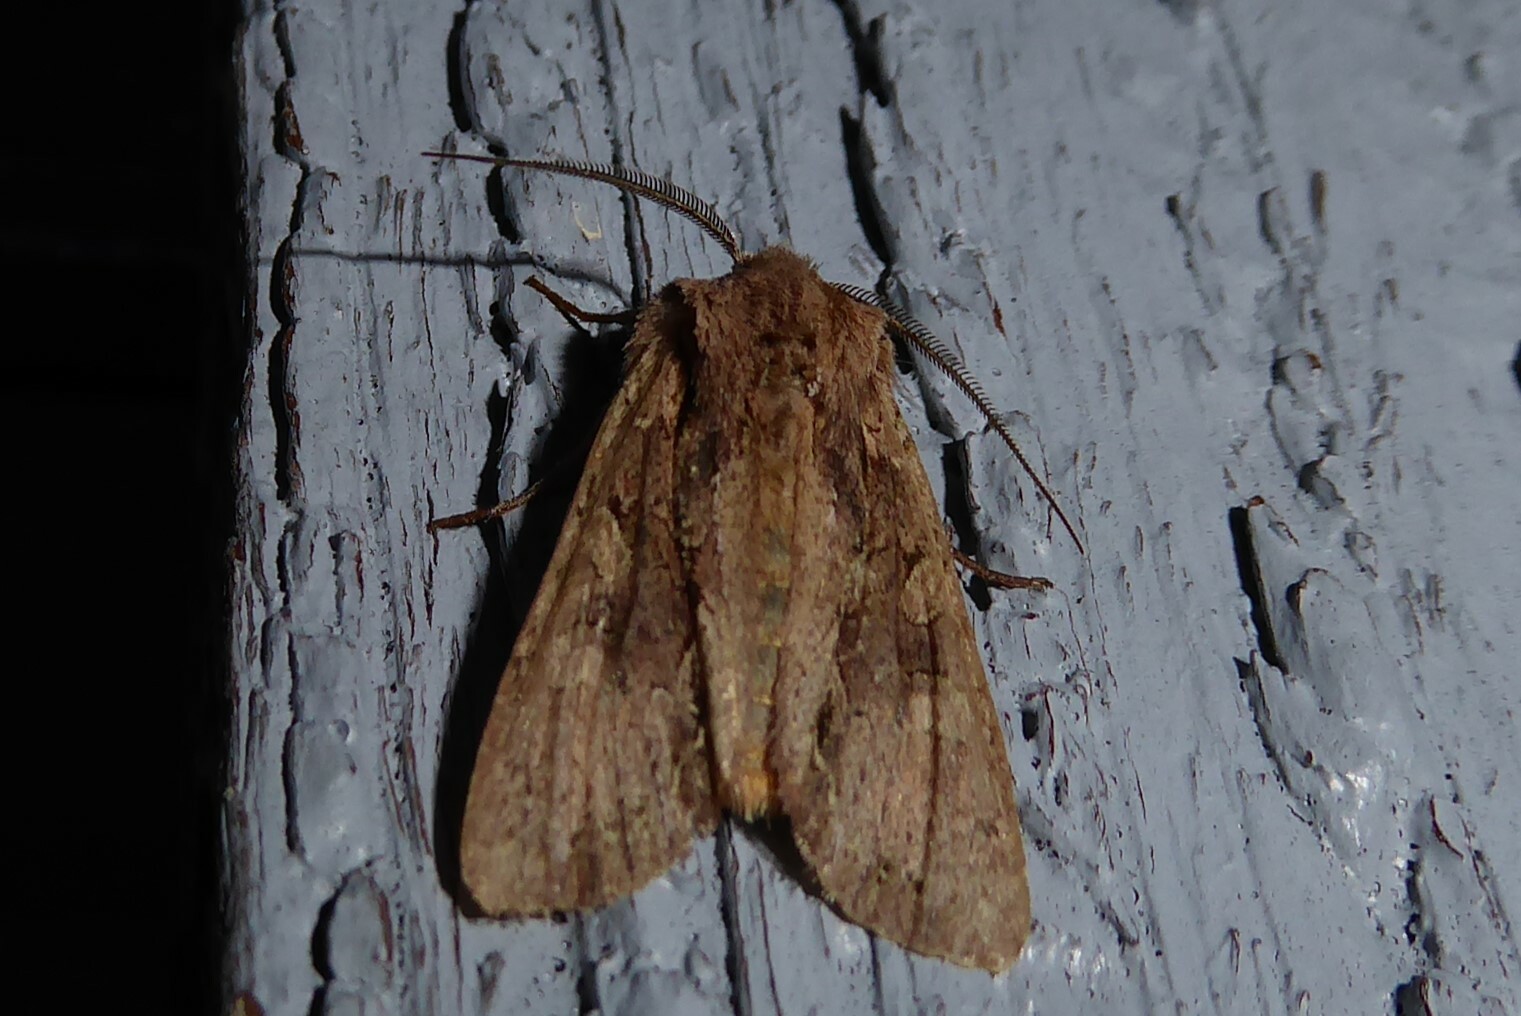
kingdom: Animalia
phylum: Arthropoda
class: Insecta
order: Lepidoptera
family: Noctuidae
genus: Ichneutica
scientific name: Ichneutica
